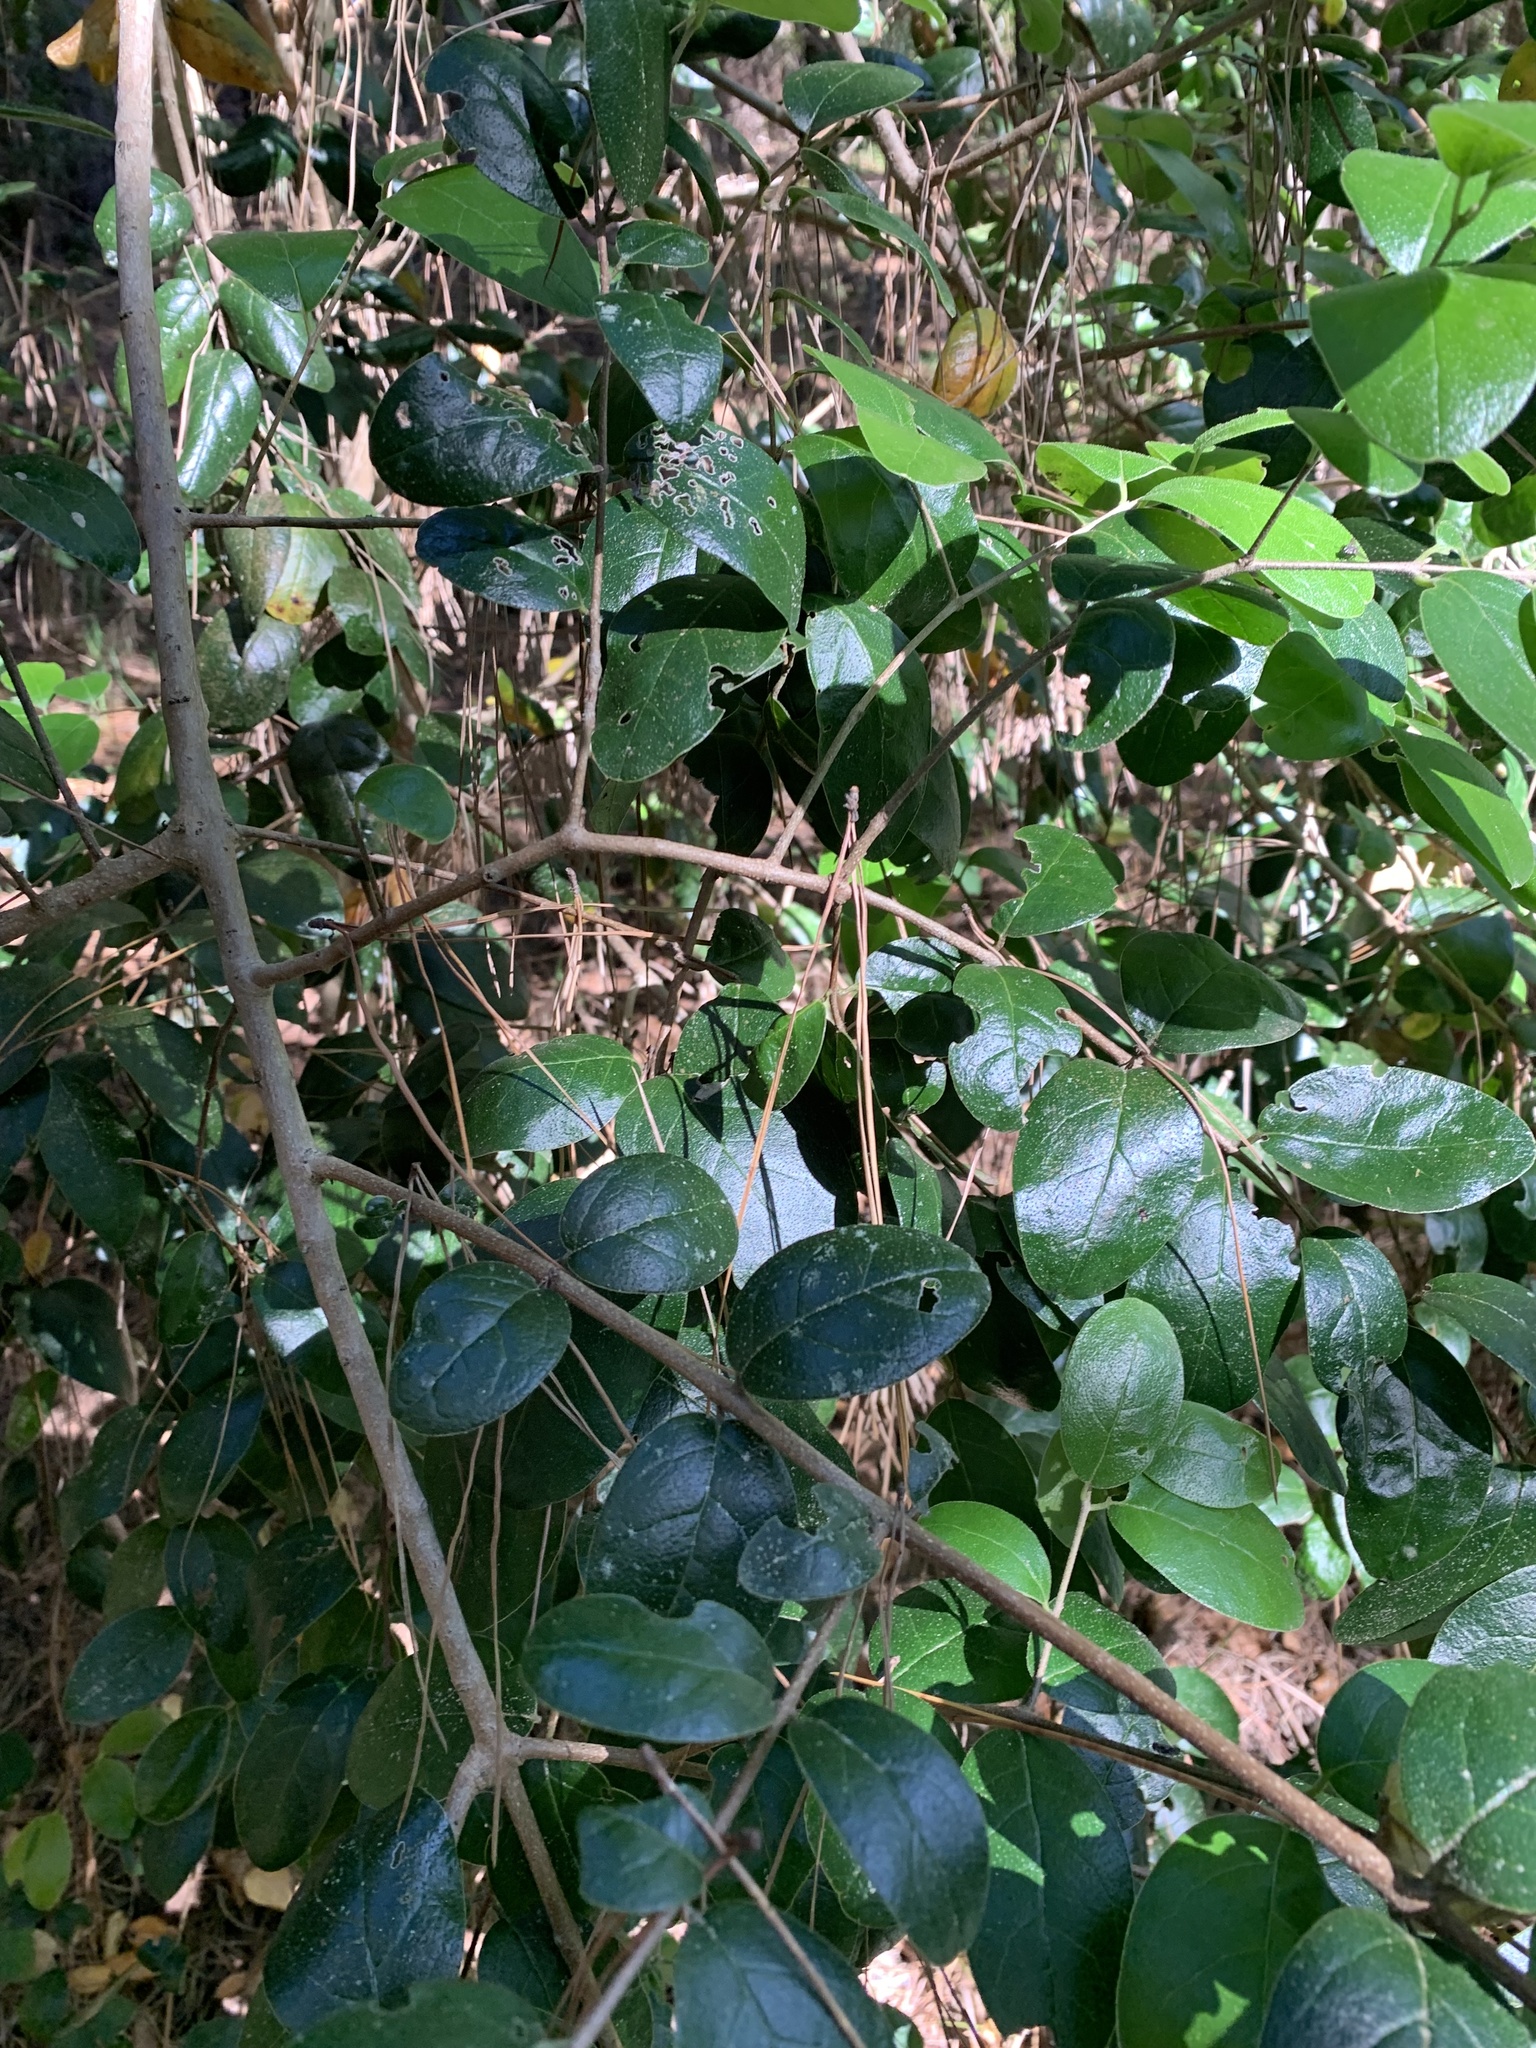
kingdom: Plantae
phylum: Tracheophyta
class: Magnoliopsida
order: Laurales
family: Monimiaceae
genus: Peumus
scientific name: Peumus boldus
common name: Boldo
